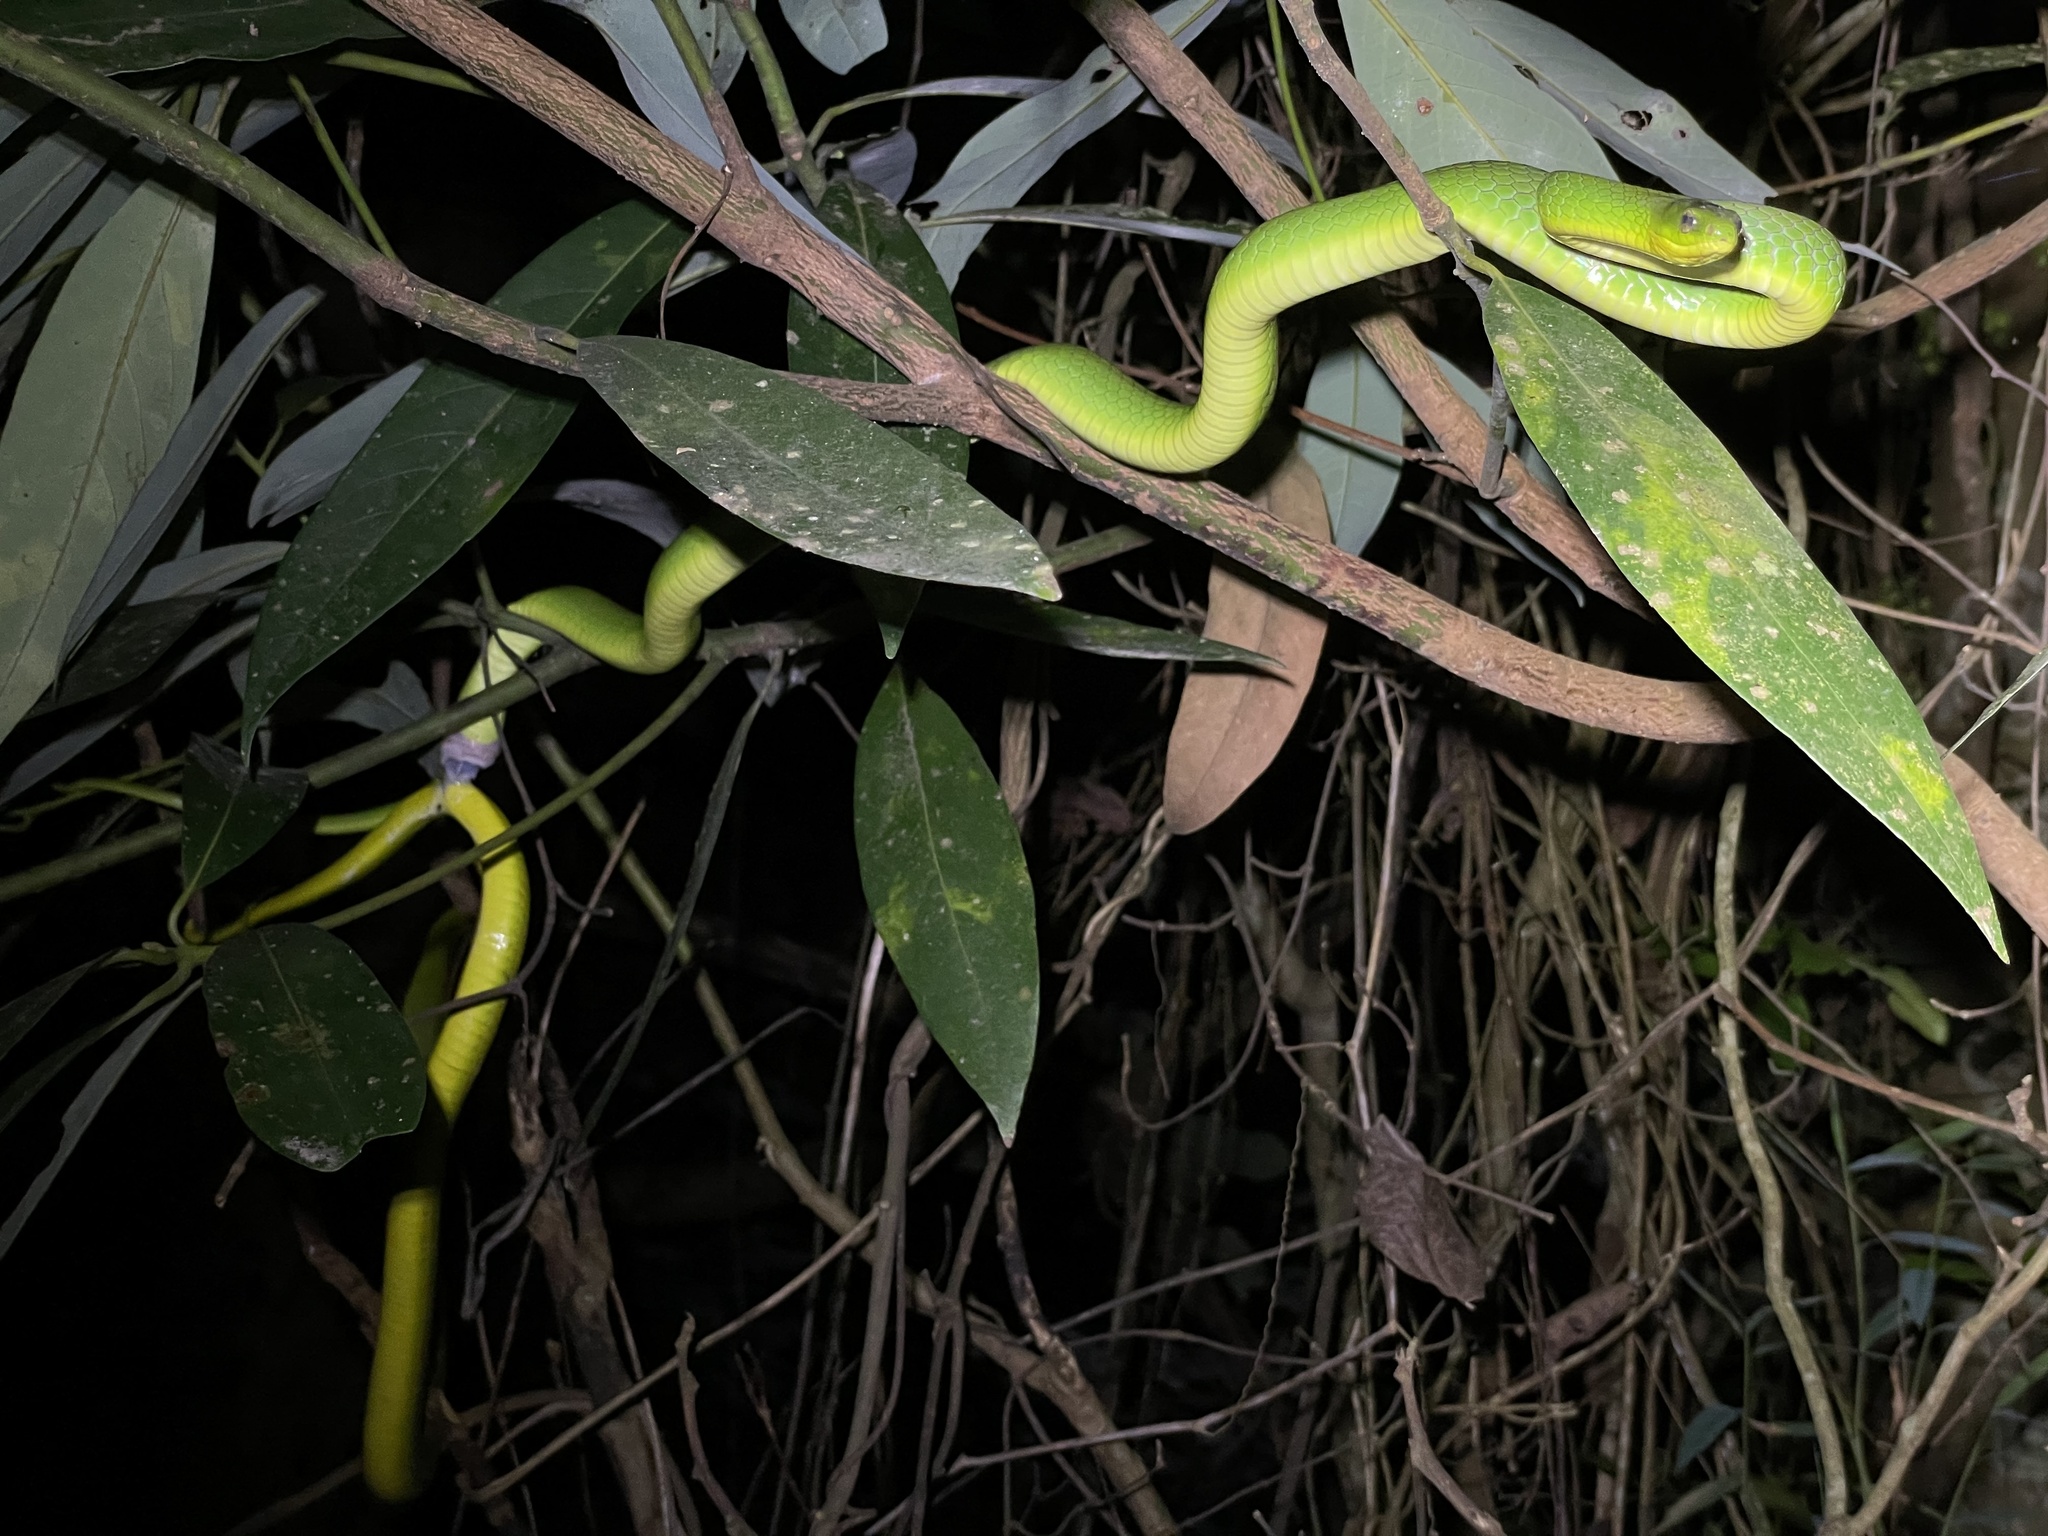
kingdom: Animalia
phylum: Chordata
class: Squamata
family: Colubridae
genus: Ptyas
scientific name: Ptyas major
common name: Chinese green snake
